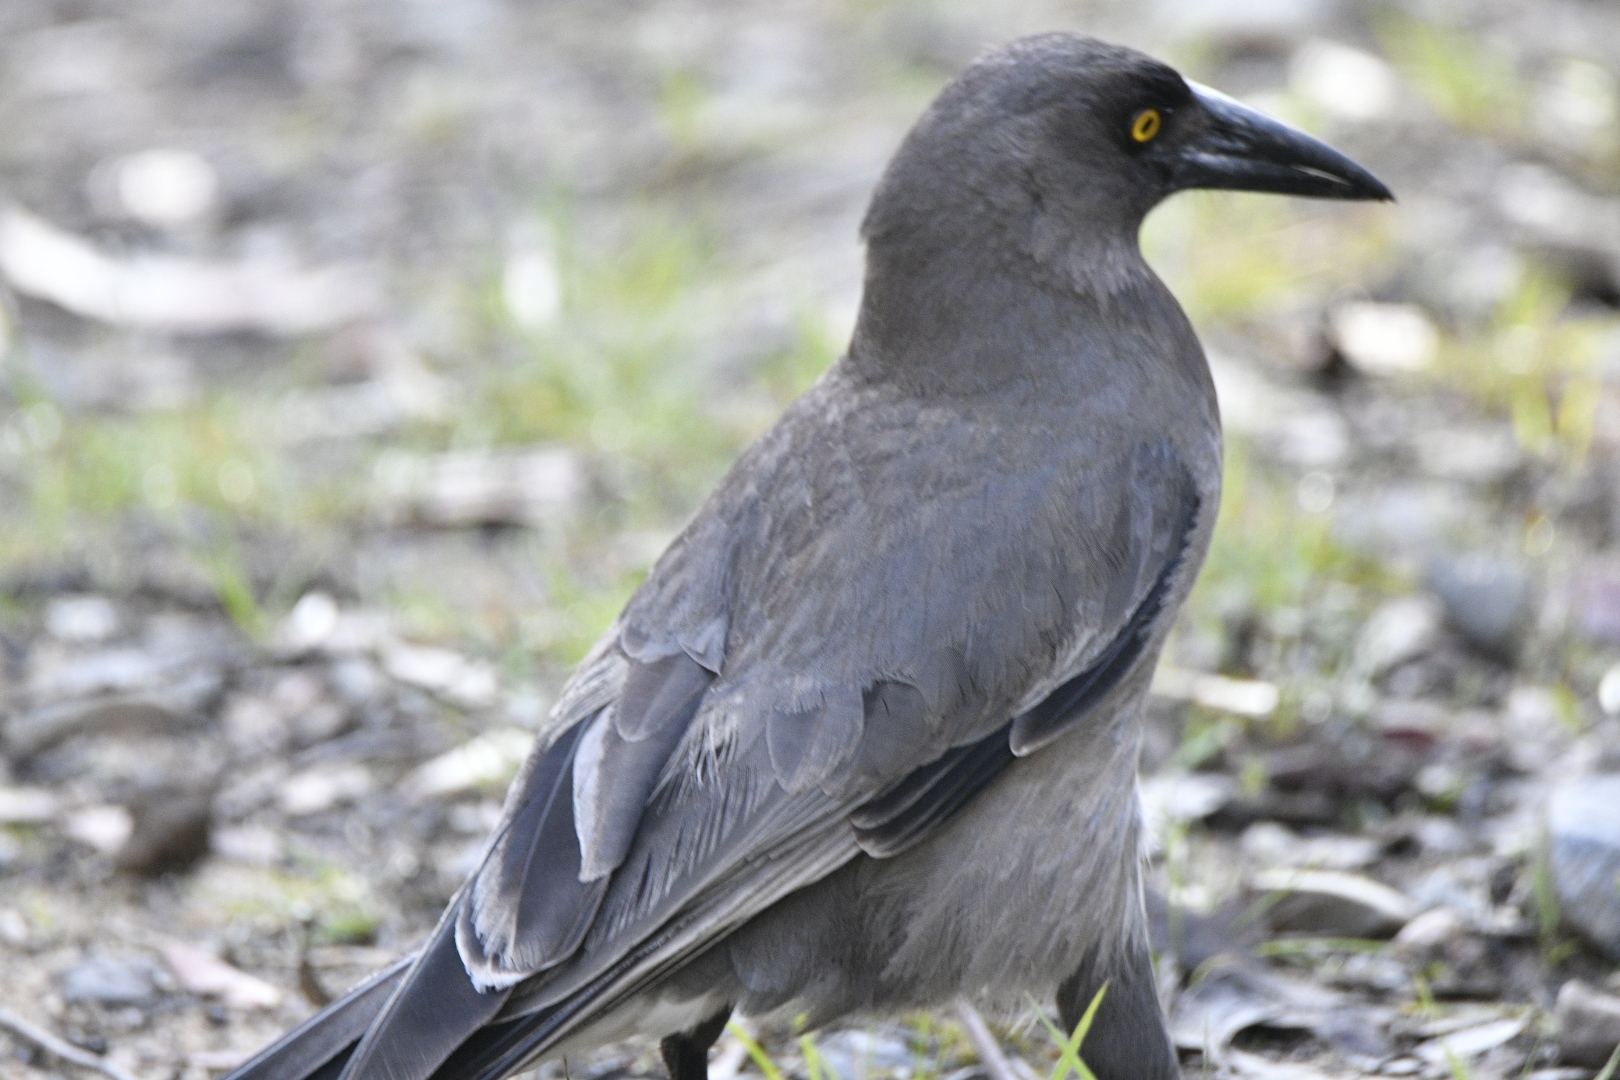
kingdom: Animalia
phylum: Chordata
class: Aves
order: Passeriformes
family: Cracticidae
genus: Strepera
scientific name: Strepera versicolor
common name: Grey currawong
